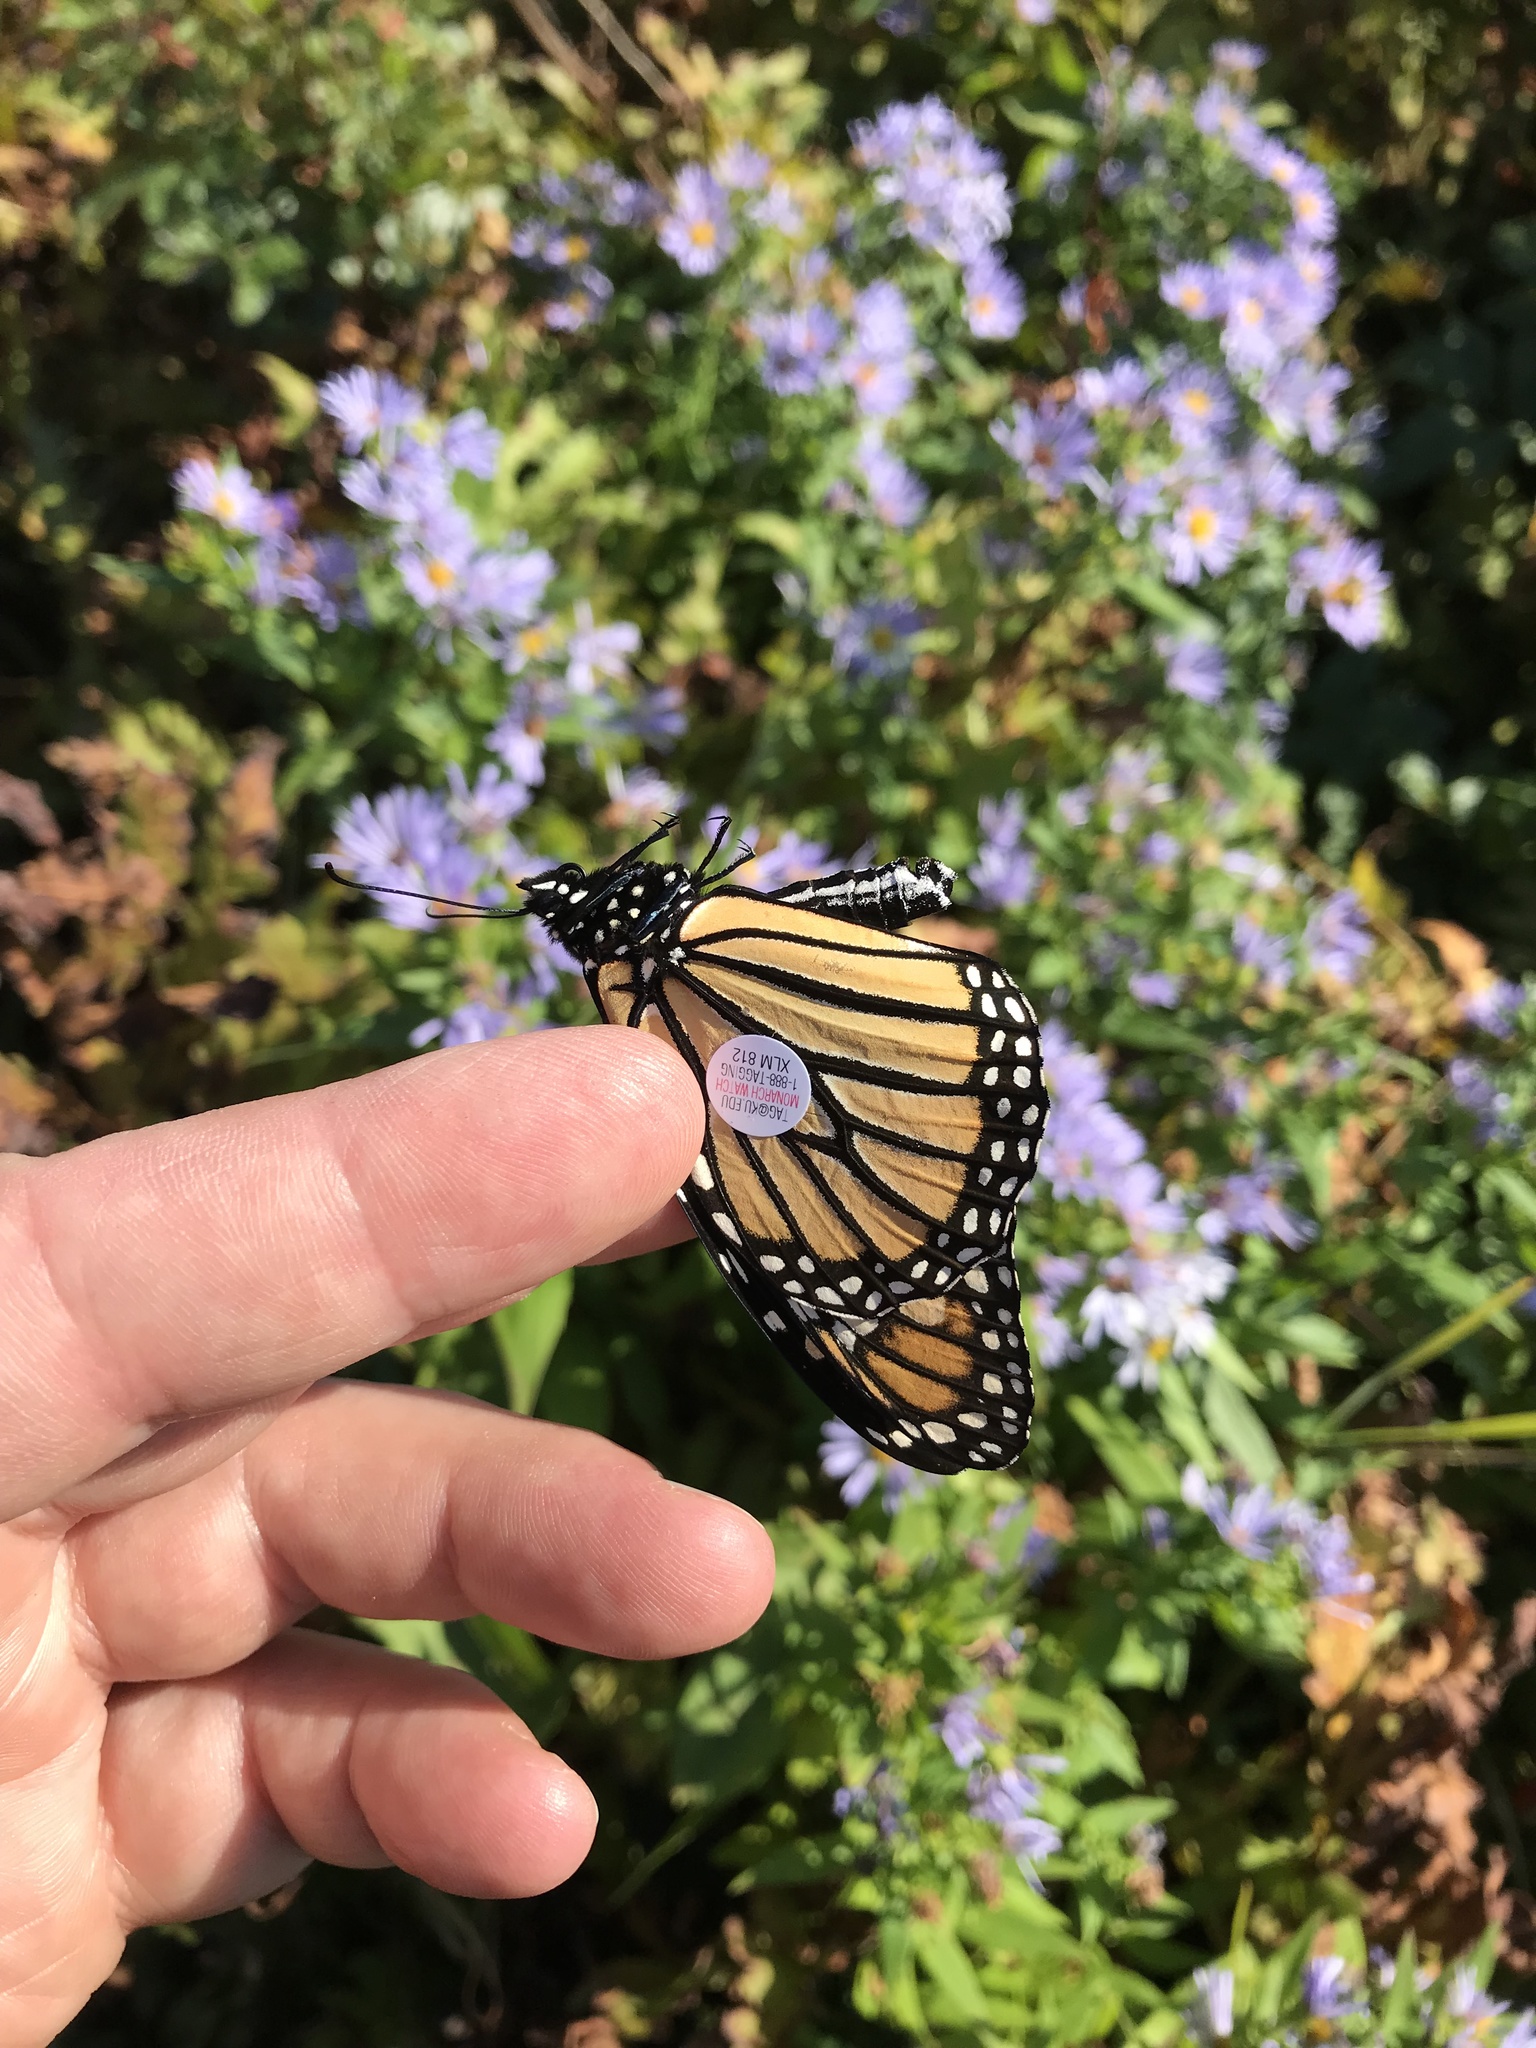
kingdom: Animalia
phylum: Arthropoda
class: Insecta
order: Lepidoptera
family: Nymphalidae
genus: Danaus
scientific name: Danaus plexippus
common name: Monarch
